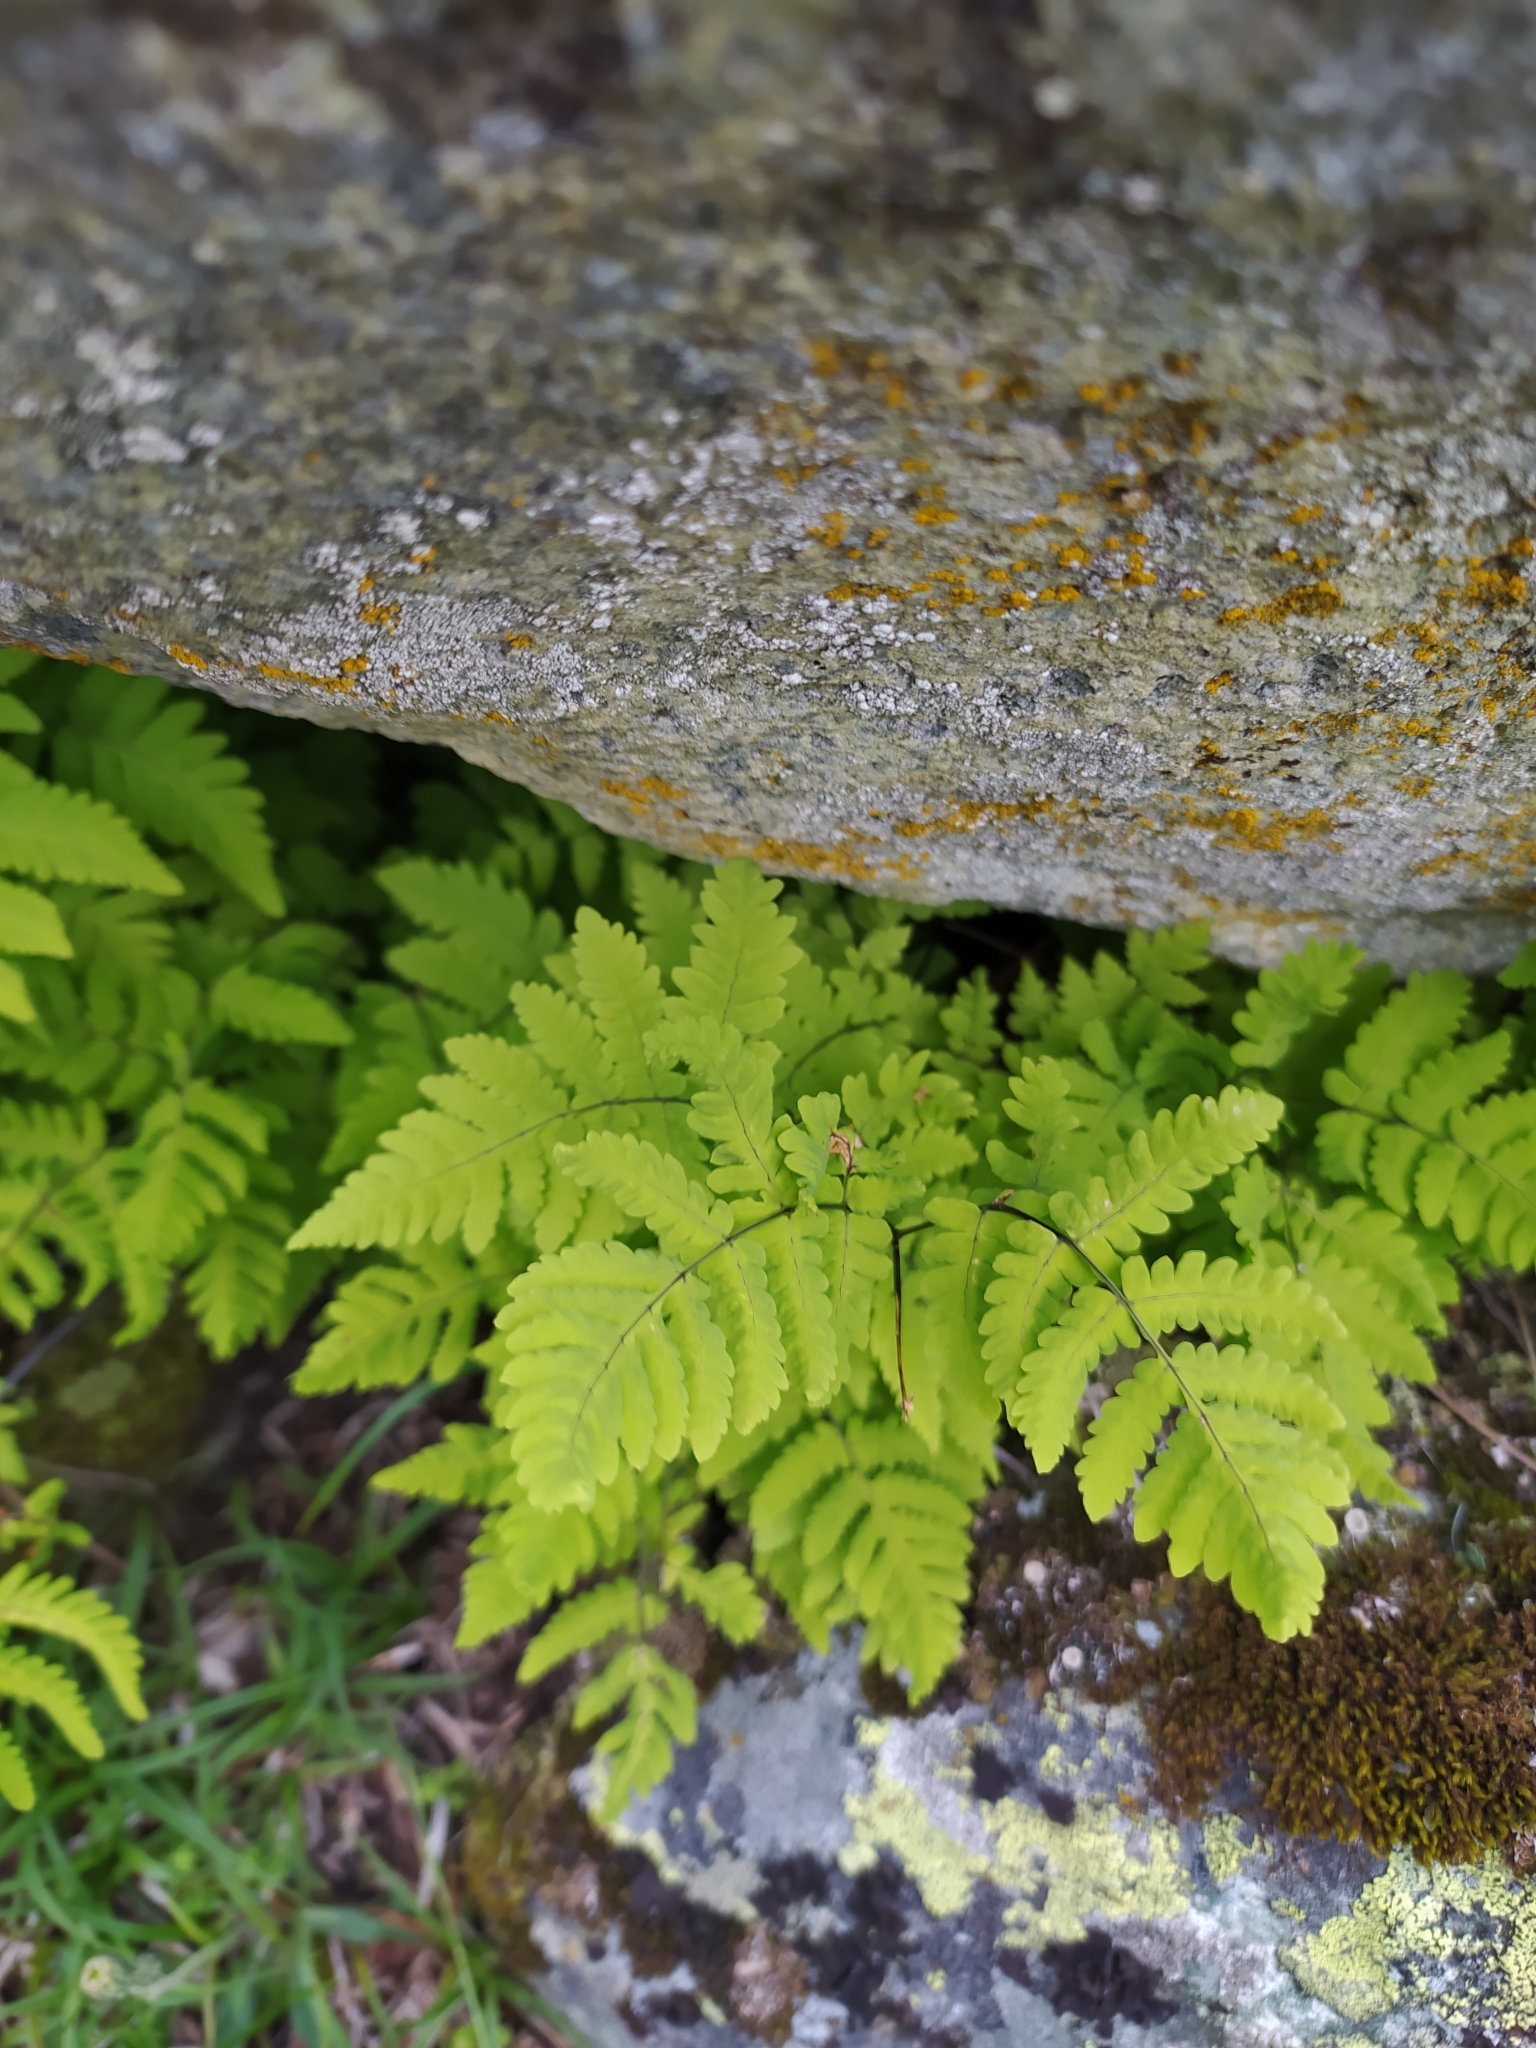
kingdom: Plantae
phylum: Tracheophyta
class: Polypodiopsida
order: Polypodiales
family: Cystopteridaceae
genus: Gymnocarpium
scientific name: Gymnocarpium dryopteris
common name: Oak fern
